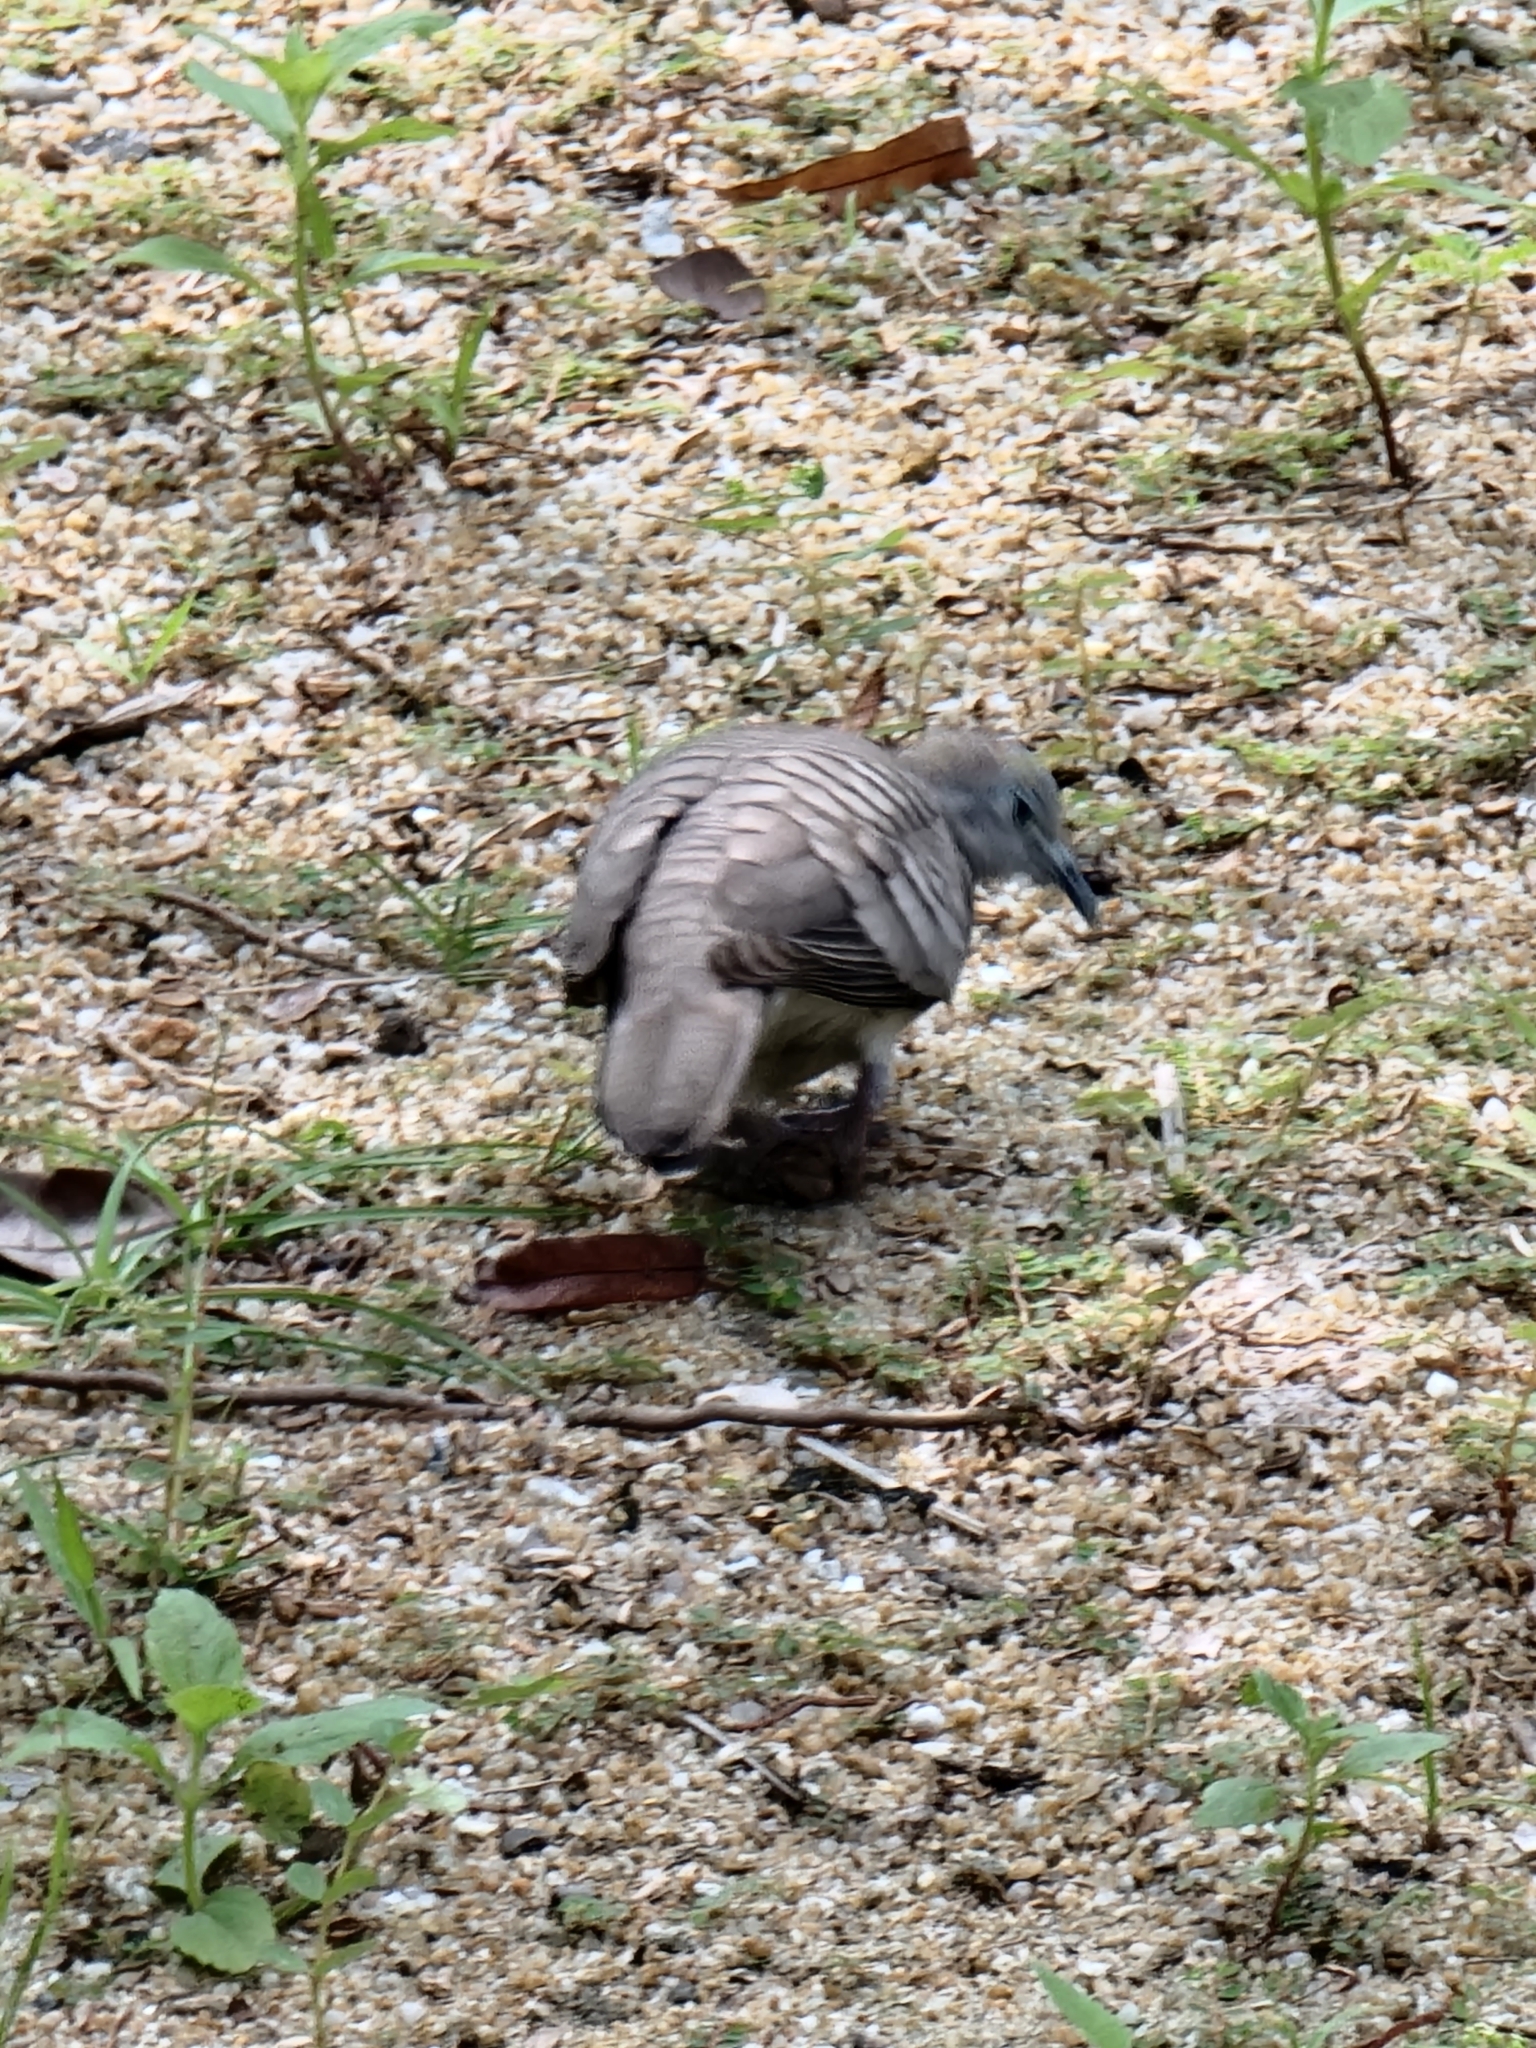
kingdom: Animalia
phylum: Chordata
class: Aves
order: Columbiformes
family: Columbidae
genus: Geopelia
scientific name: Geopelia striata
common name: Zebra dove
